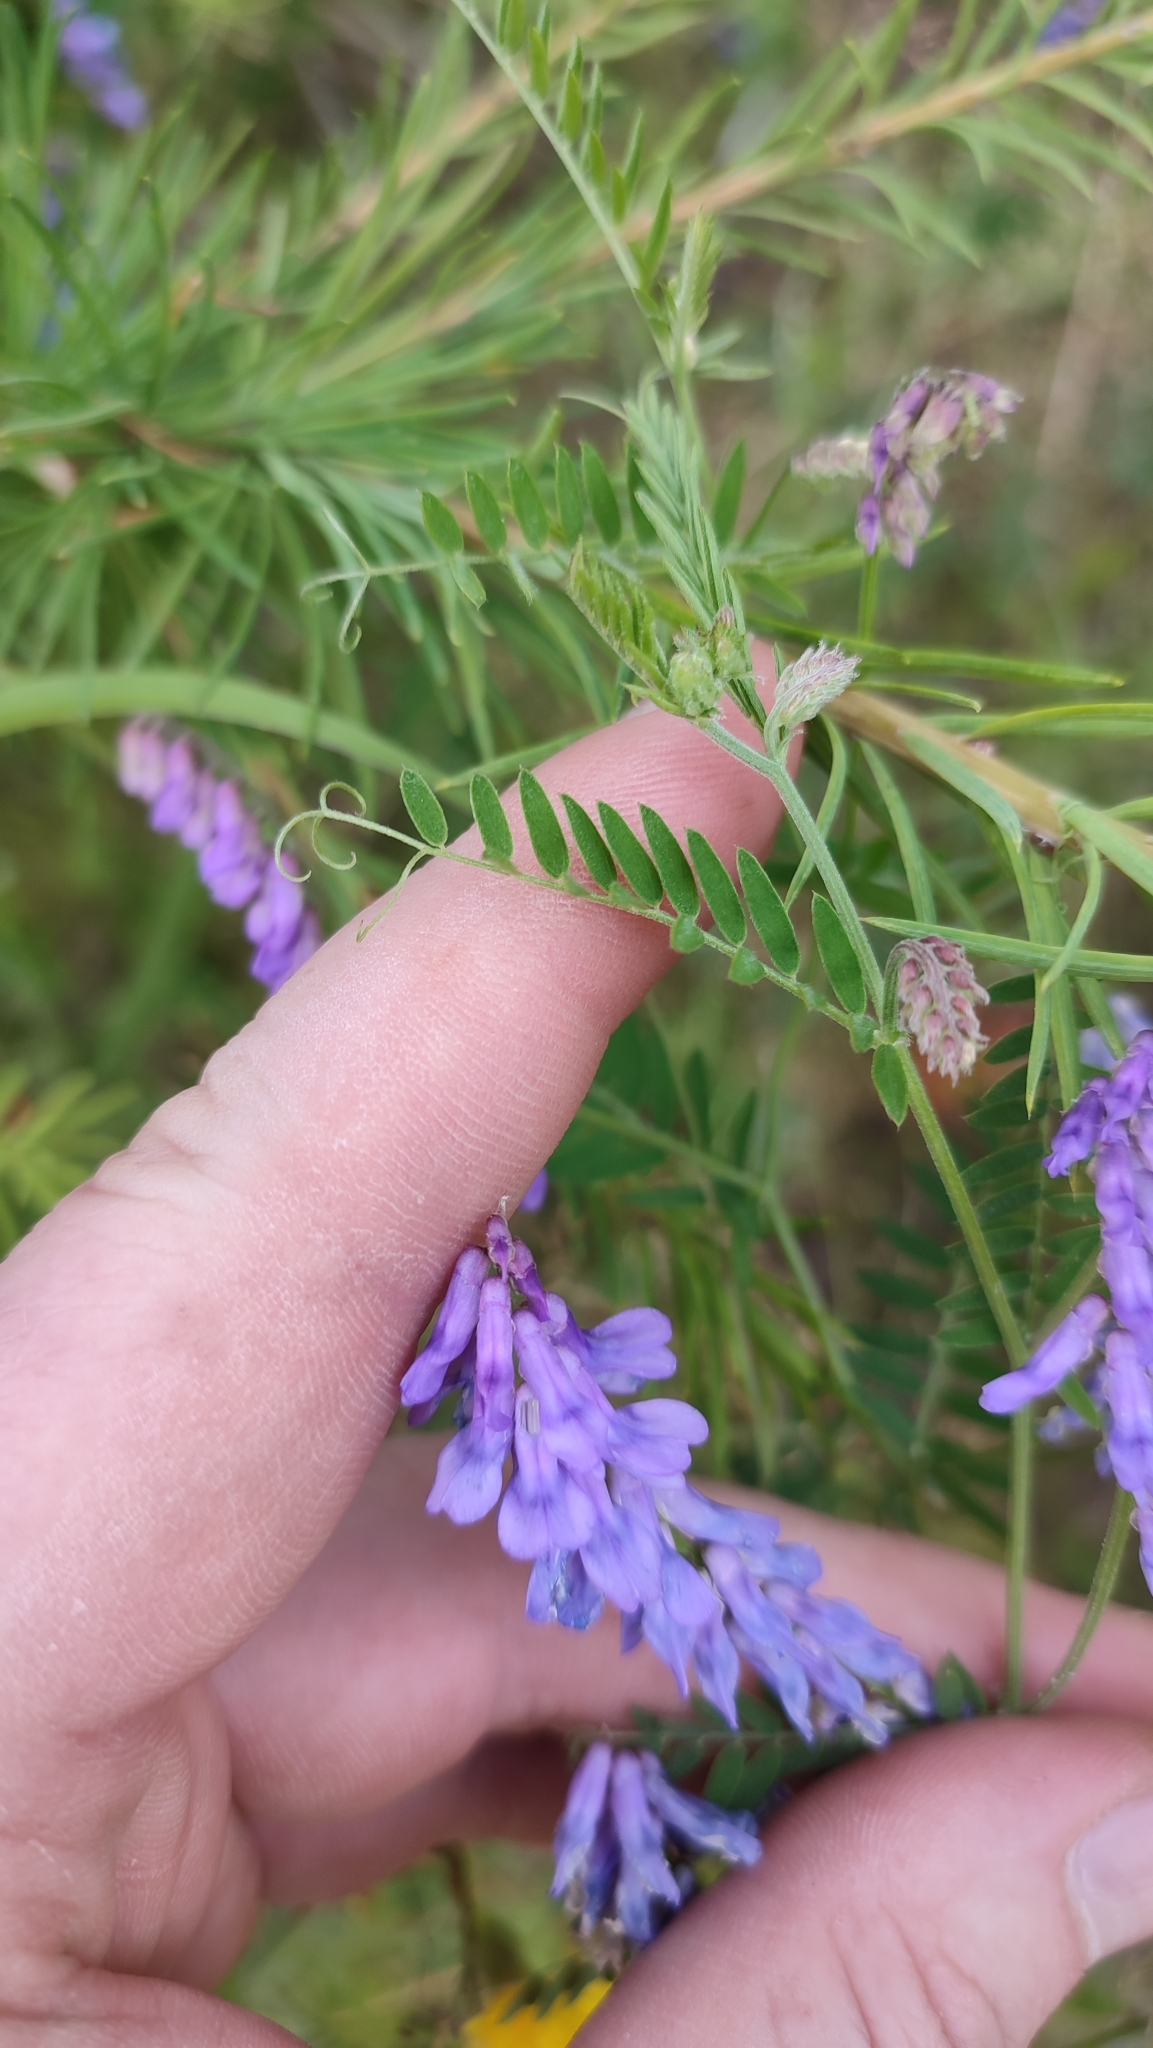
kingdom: Plantae
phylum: Tracheophyta
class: Magnoliopsida
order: Fabales
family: Fabaceae
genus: Vicia
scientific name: Vicia cracca
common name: Bird vetch
